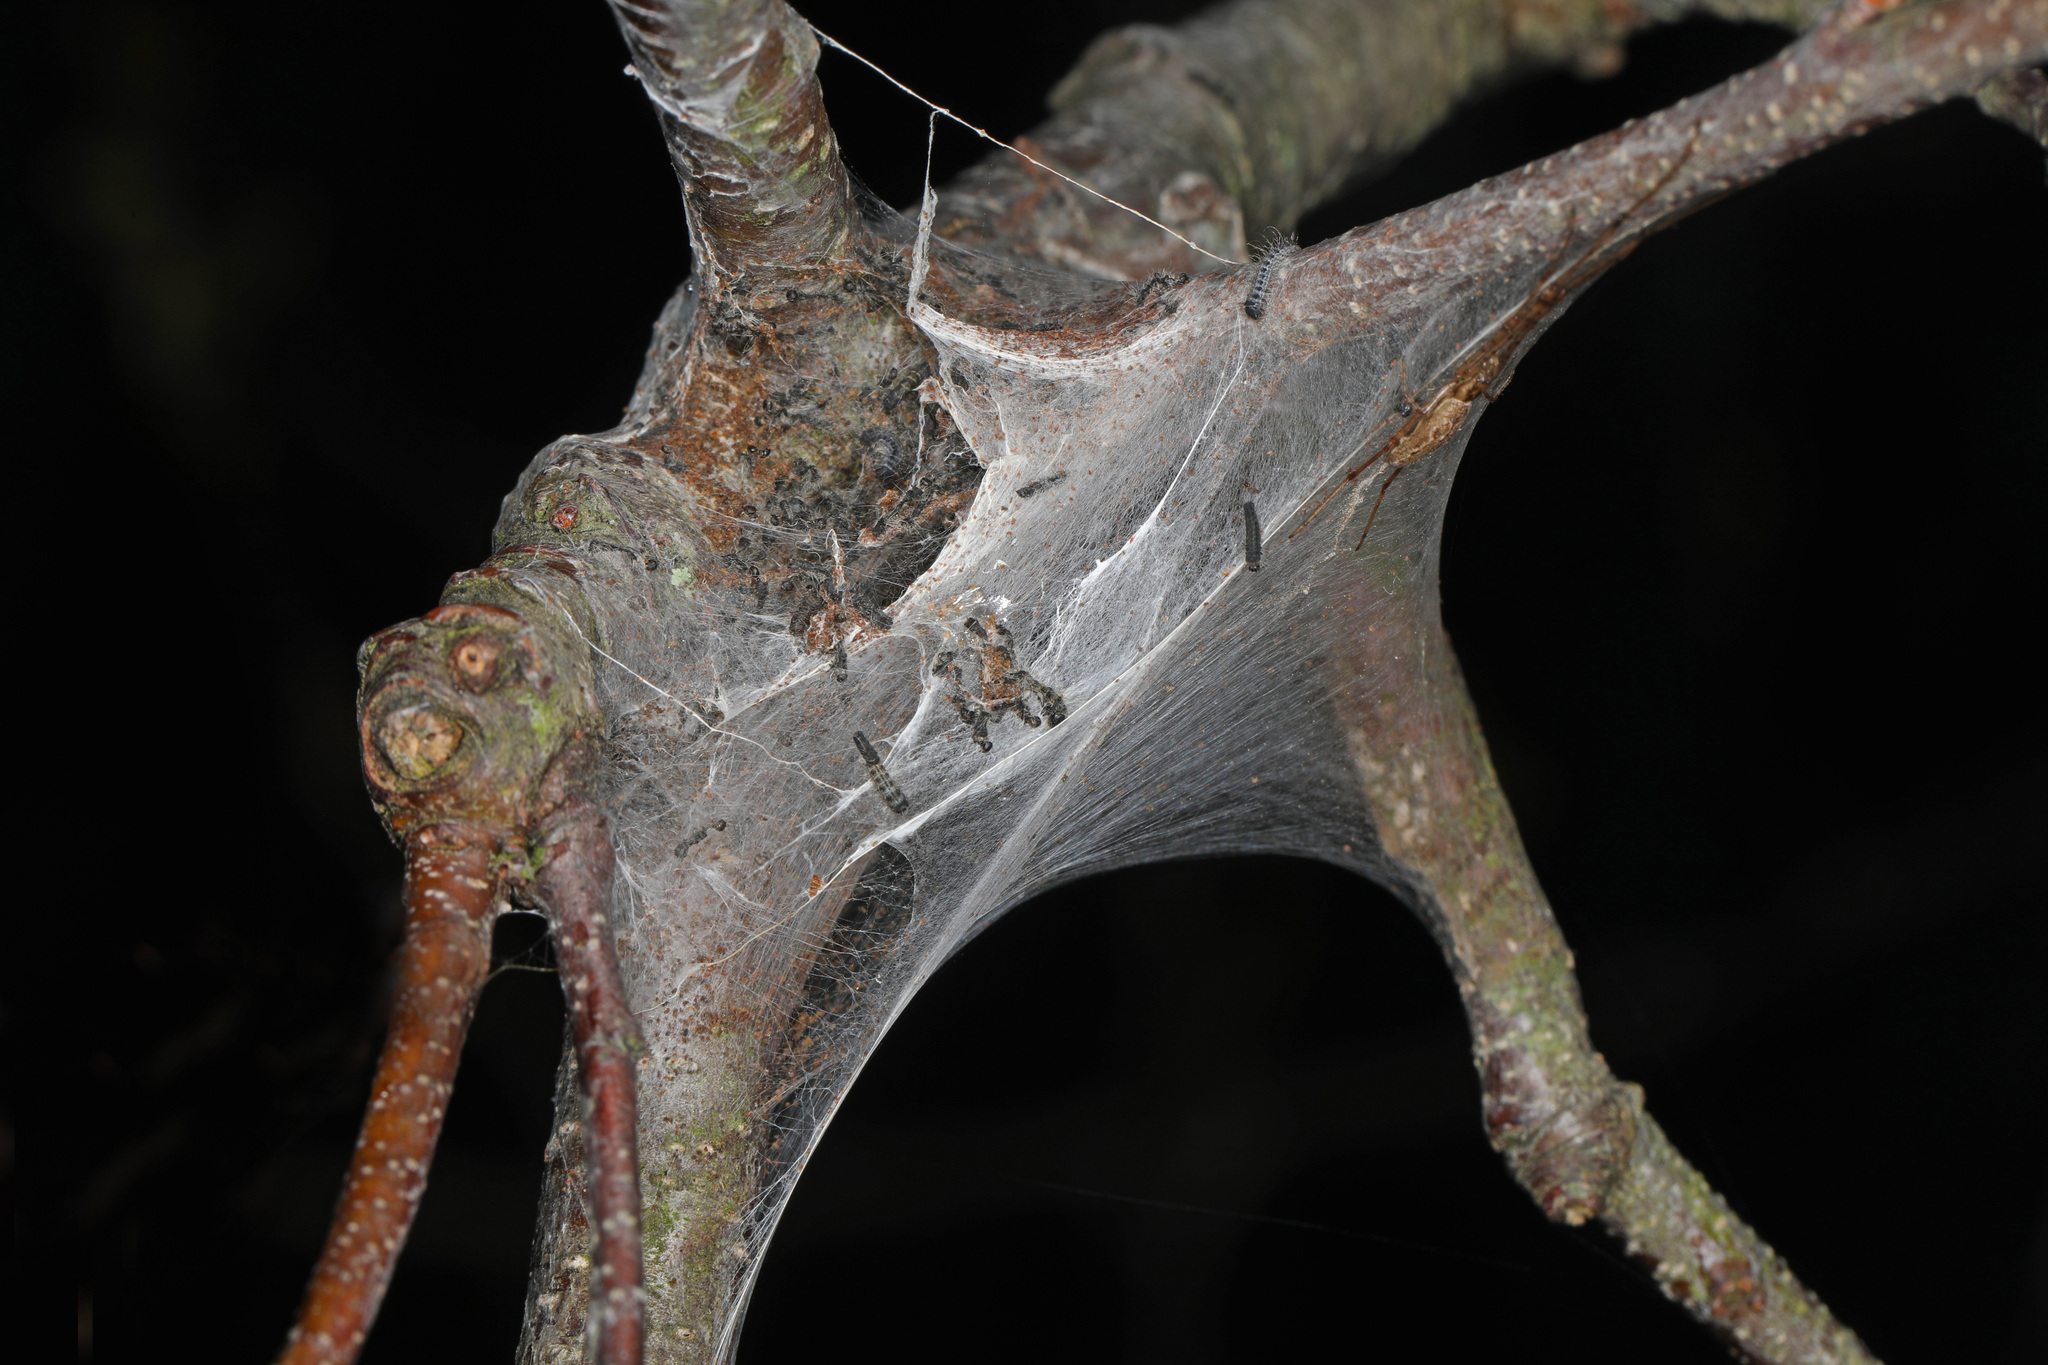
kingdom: Animalia
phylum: Arthropoda
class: Insecta
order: Lepidoptera
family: Lasiocampidae
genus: Malacosoma
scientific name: Malacosoma americana
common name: Eastern tent caterpillar moth
